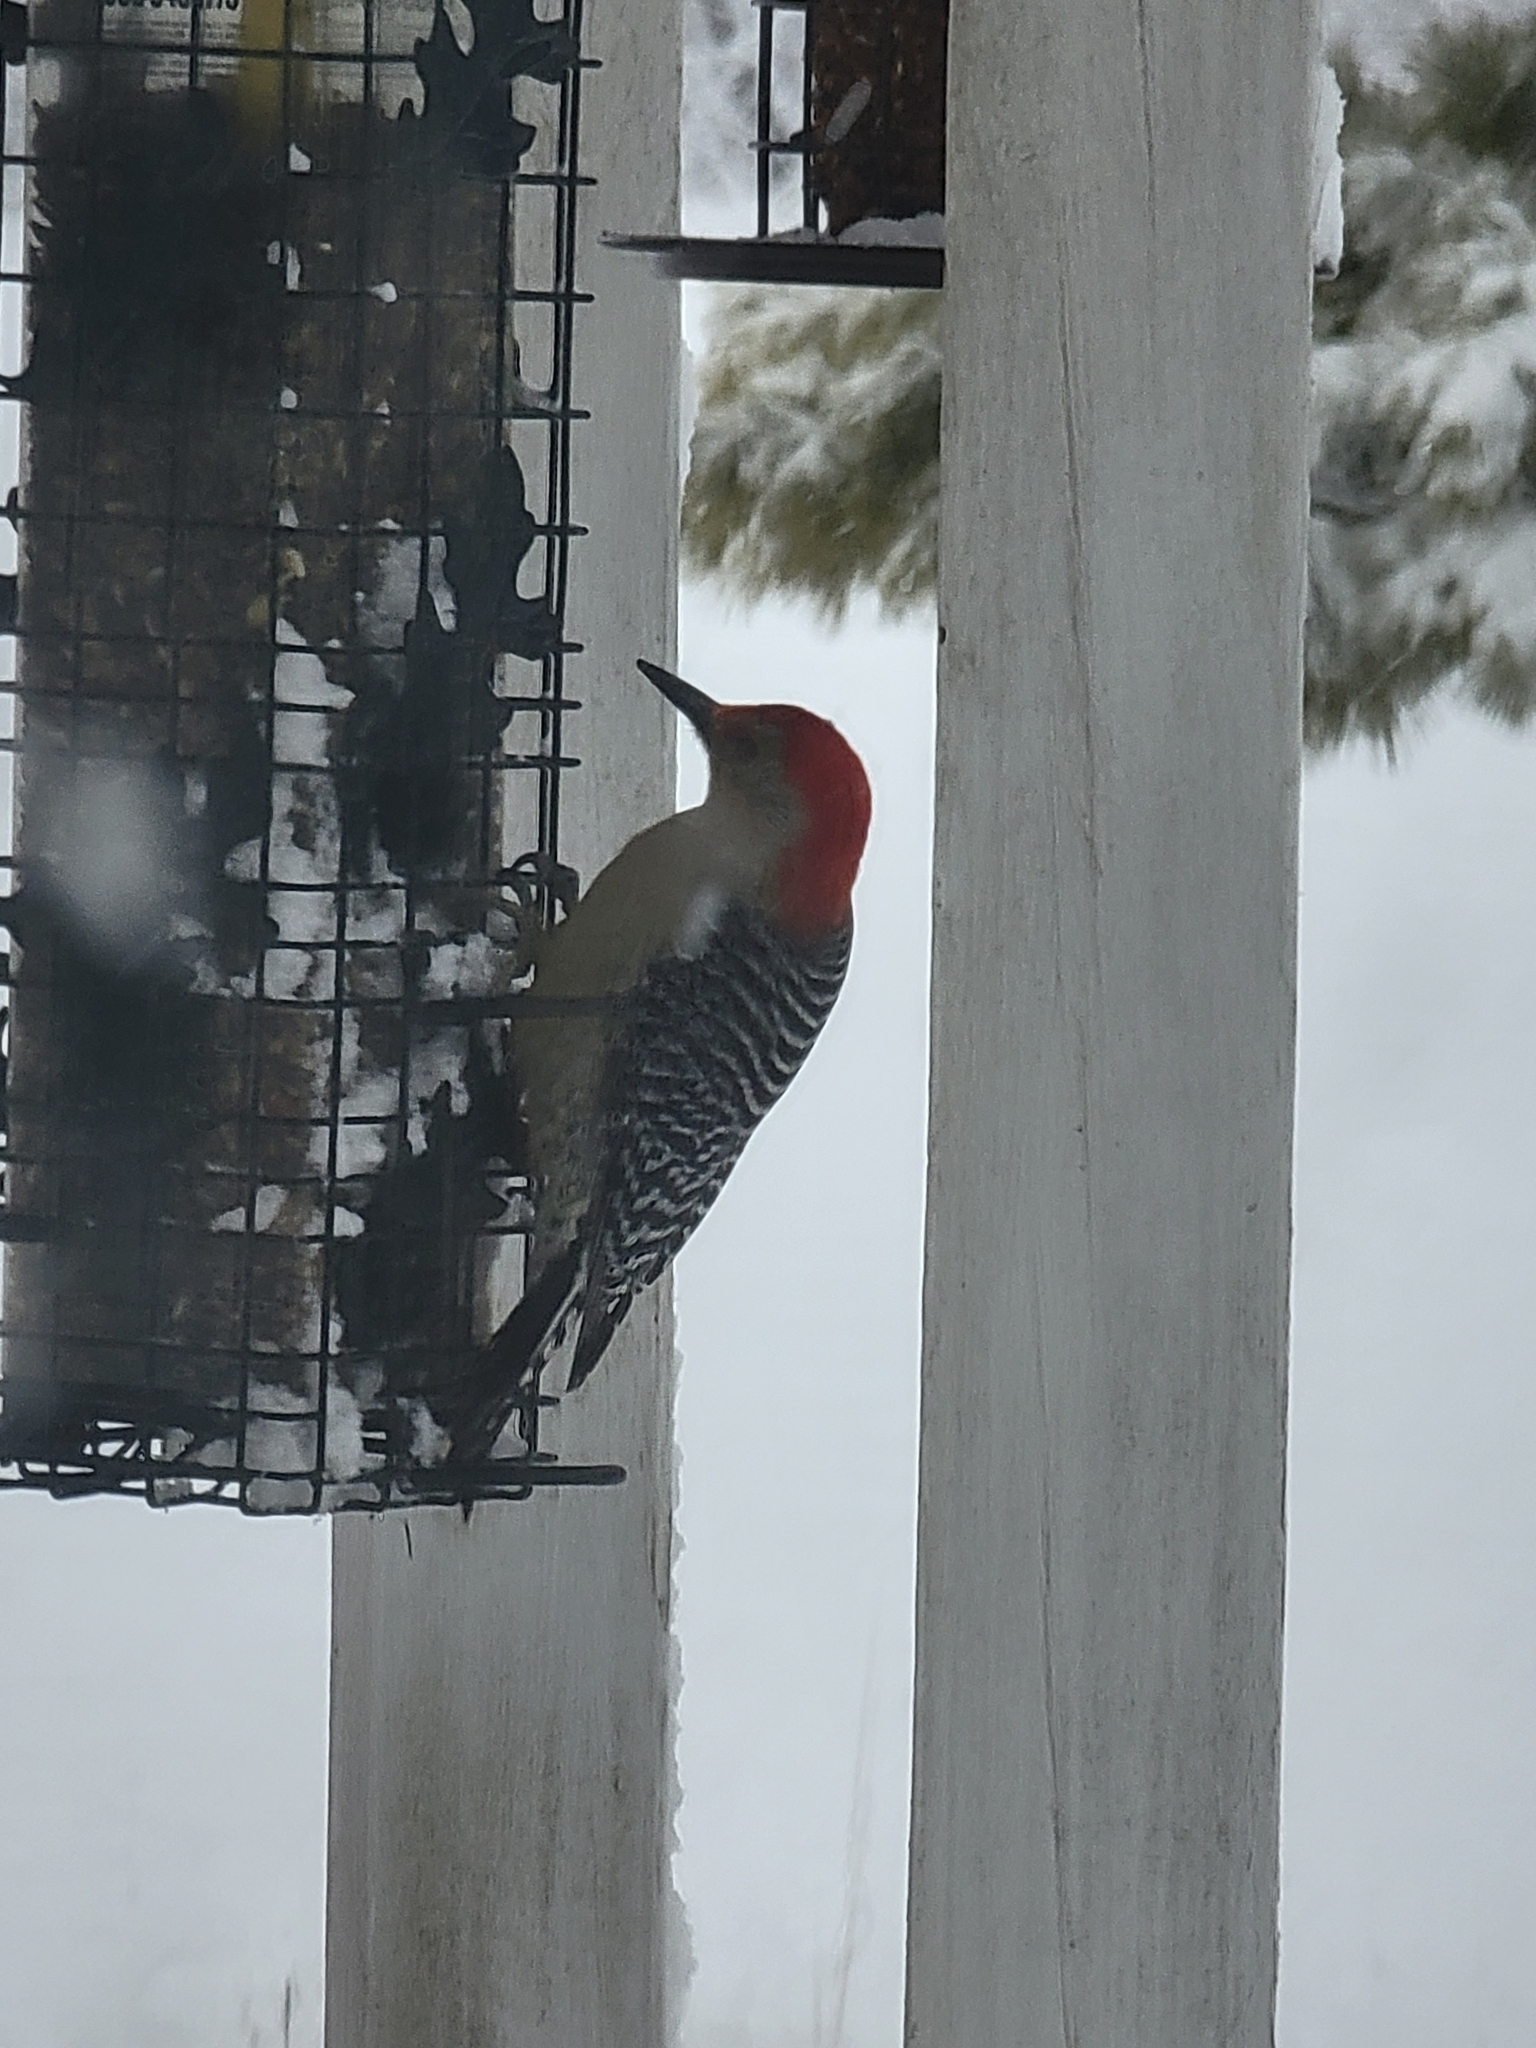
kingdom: Animalia
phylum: Chordata
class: Aves
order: Piciformes
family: Picidae
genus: Melanerpes
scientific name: Melanerpes carolinus
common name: Red-bellied woodpecker
